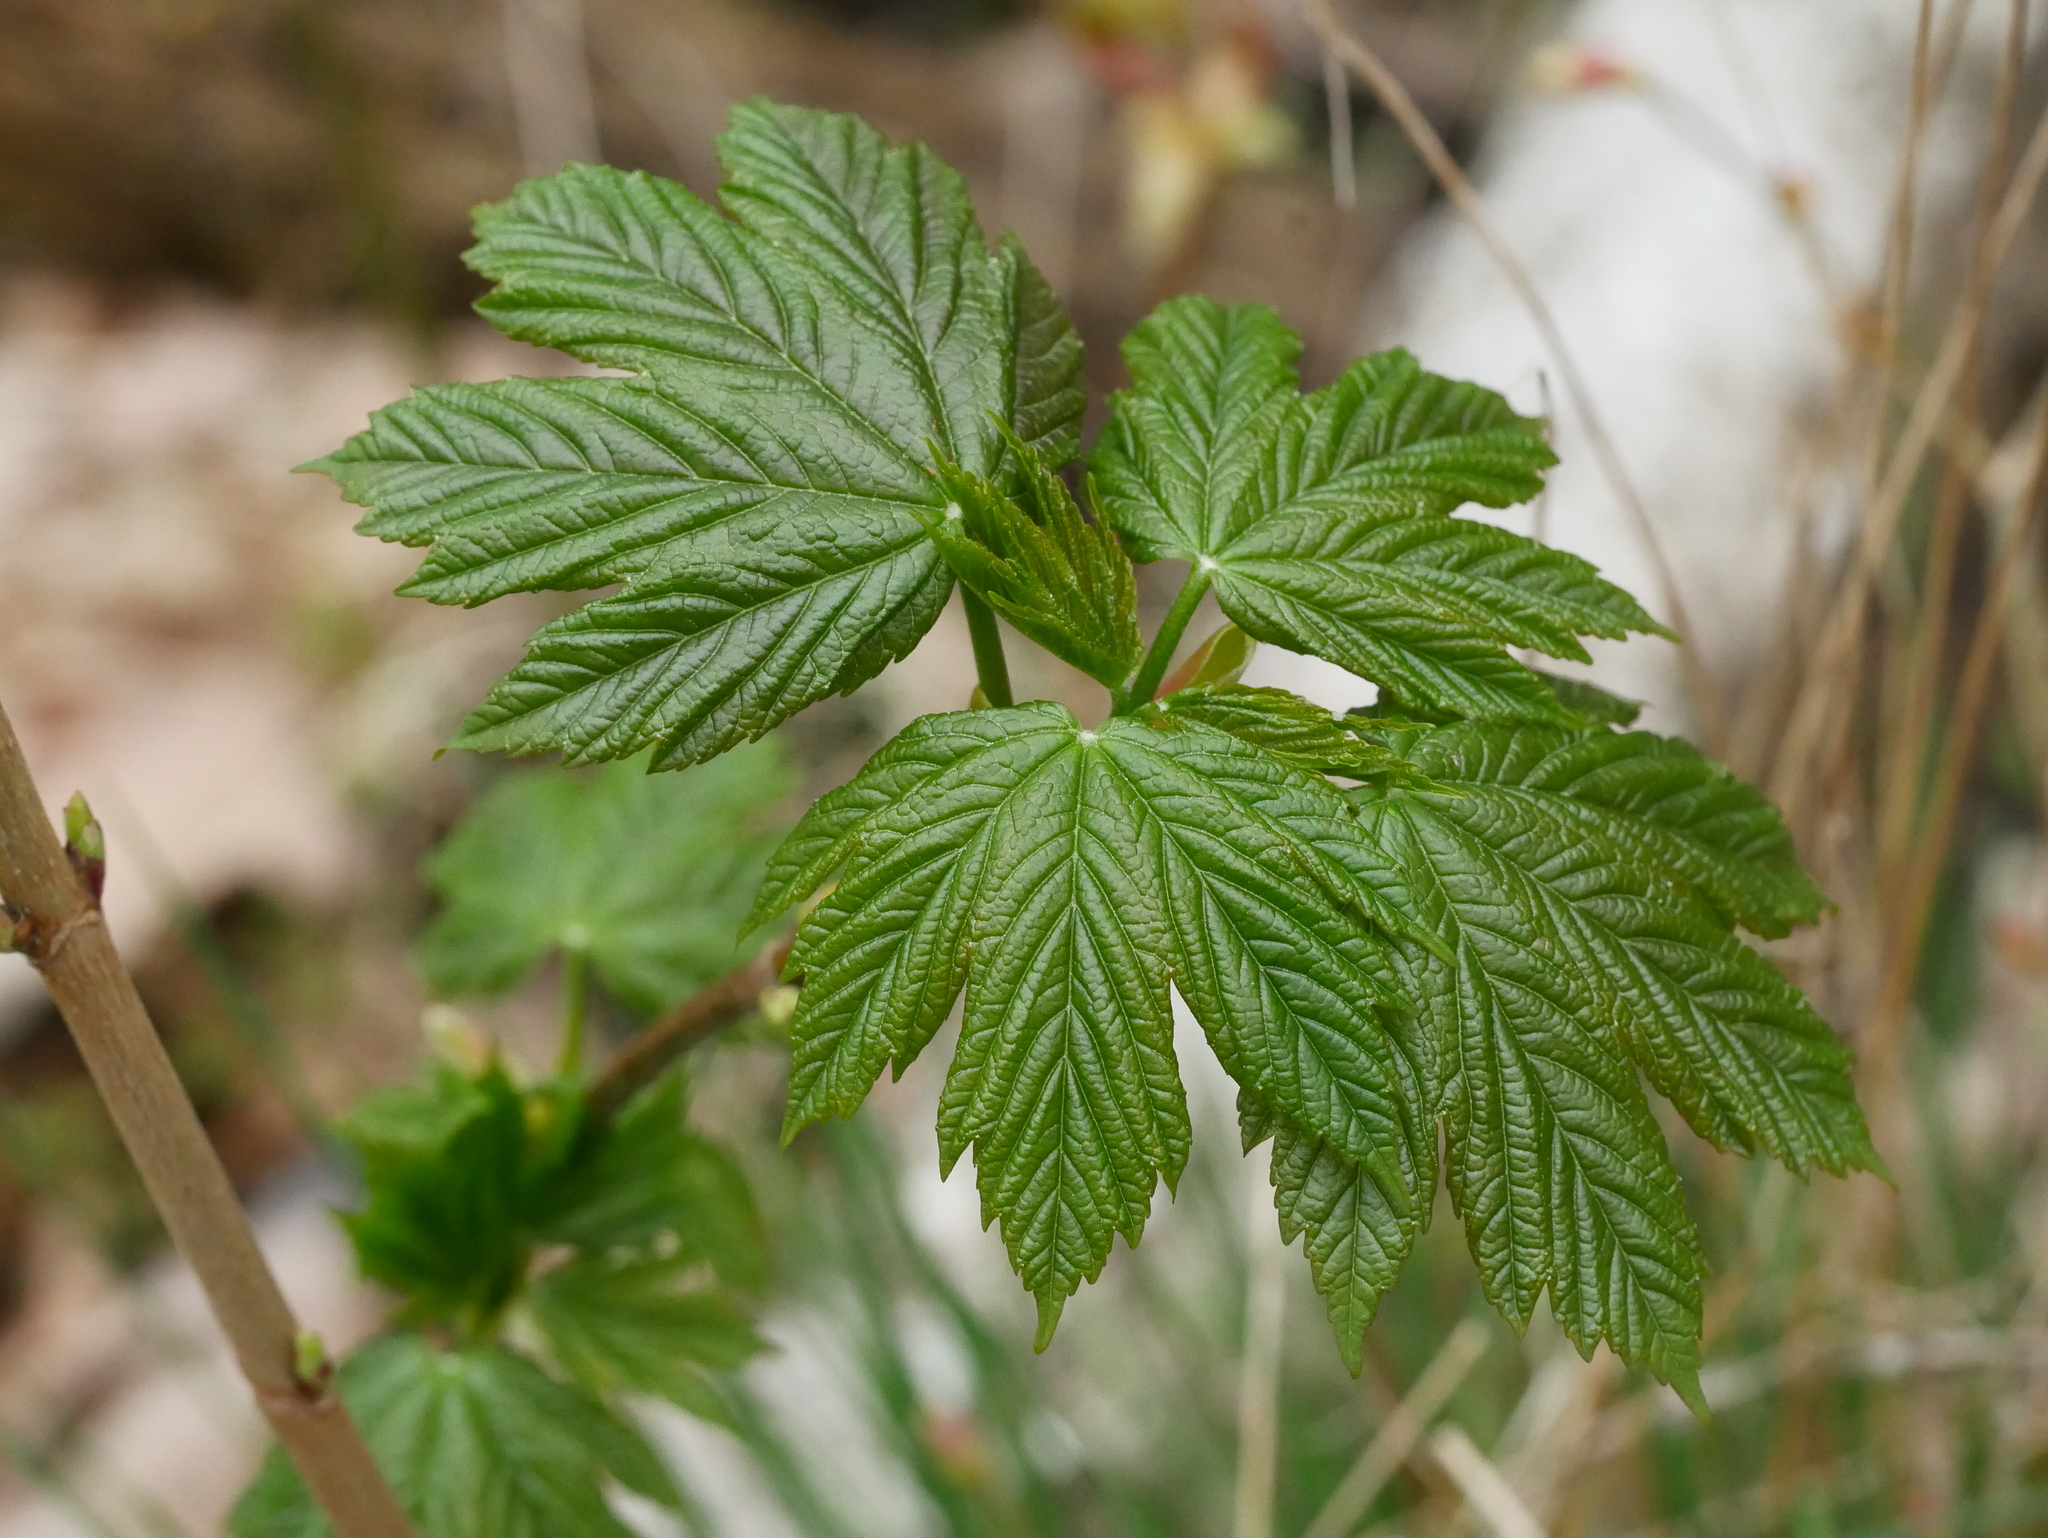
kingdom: Plantae
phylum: Tracheophyta
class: Magnoliopsida
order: Sapindales
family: Sapindaceae
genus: Acer
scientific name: Acer pseudoplatanus
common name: Sycamore
